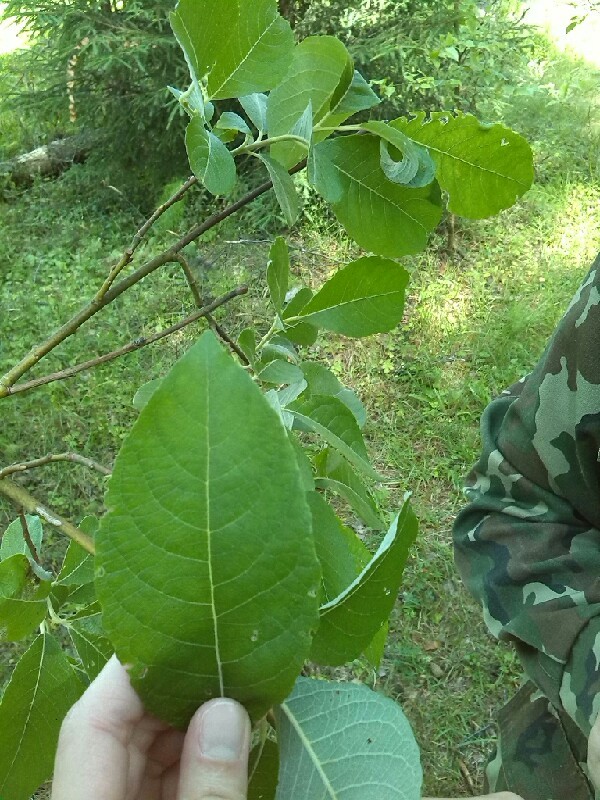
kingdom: Plantae
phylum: Tracheophyta
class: Magnoliopsida
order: Malpighiales
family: Salicaceae
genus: Salix
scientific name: Salix caprea
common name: Goat willow
